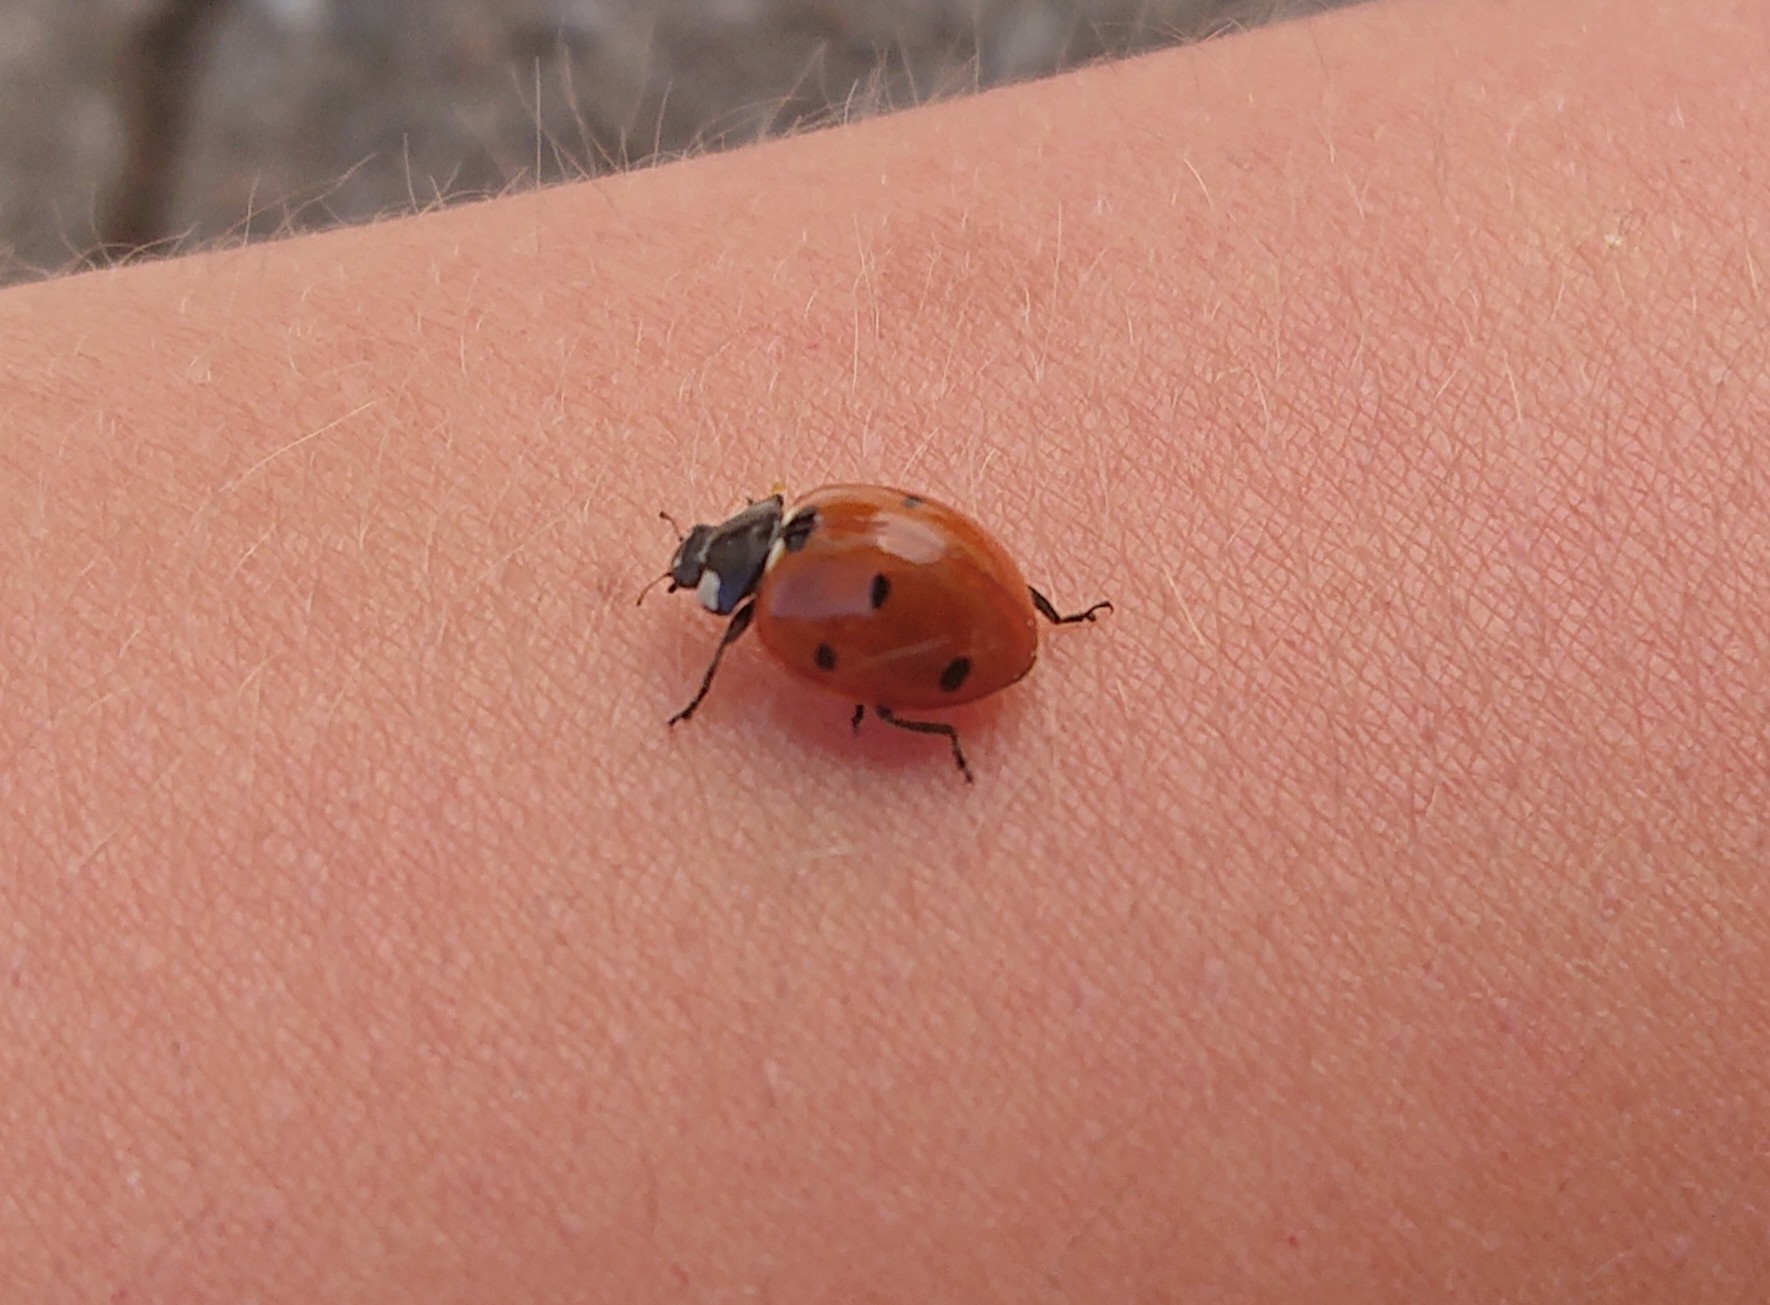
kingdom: Animalia
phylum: Arthropoda
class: Insecta
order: Coleoptera
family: Coccinellidae
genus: Coccinella
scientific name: Coccinella septempunctata
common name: Sevenspotted lady beetle
